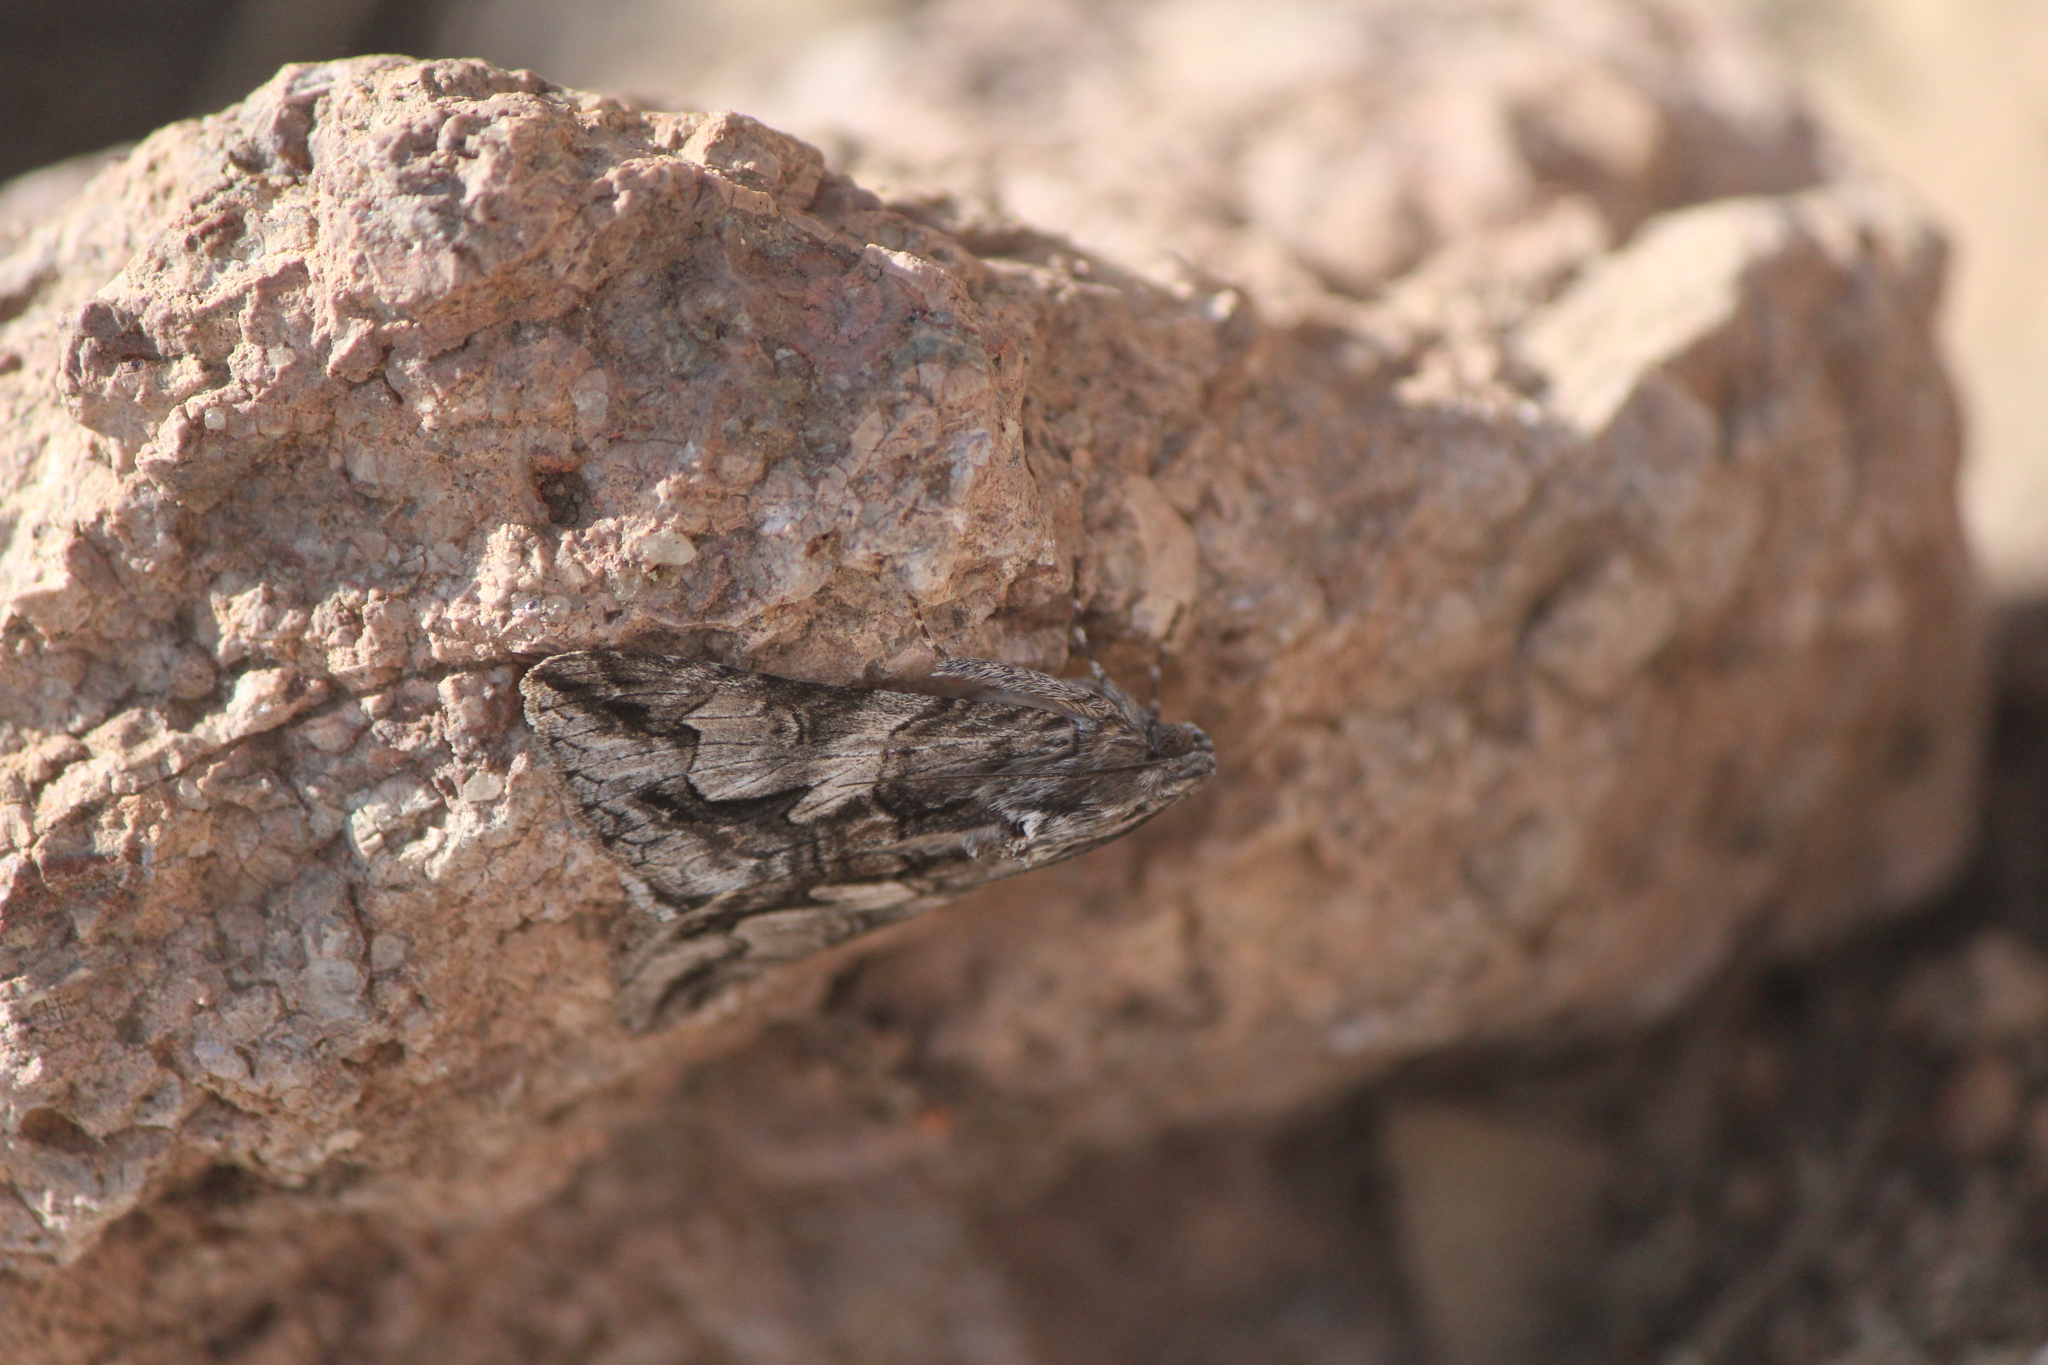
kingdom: Animalia
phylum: Arthropoda
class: Insecta
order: Lepidoptera
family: Erebidae
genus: Melipotis
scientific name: Melipotis jucunda
